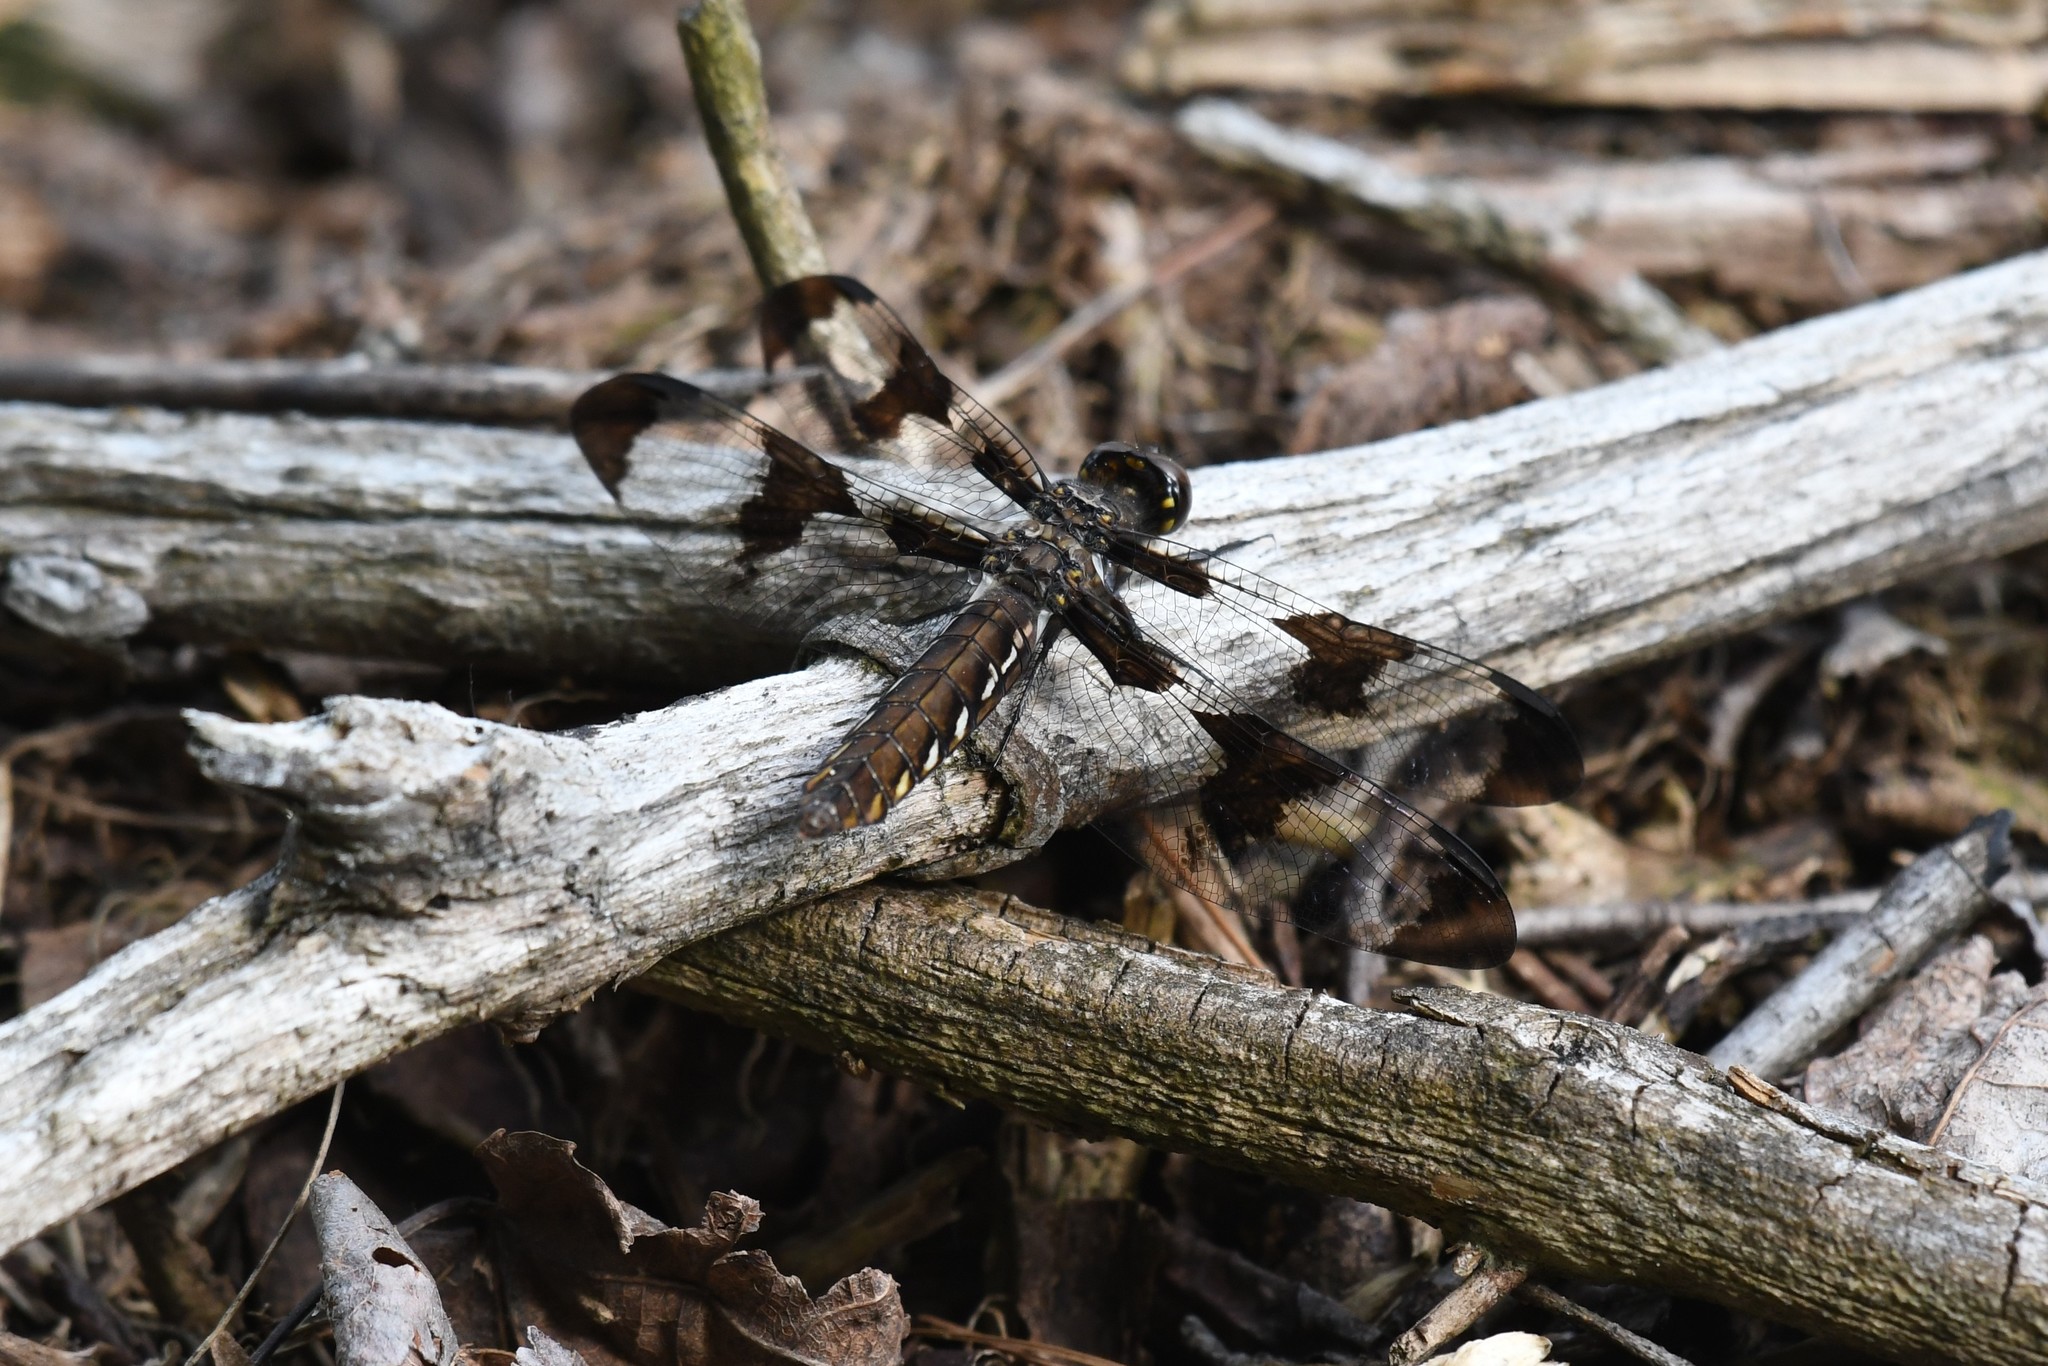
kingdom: Animalia
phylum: Arthropoda
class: Insecta
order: Odonata
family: Libellulidae
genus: Plathemis
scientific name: Plathemis lydia
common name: Common whitetail
